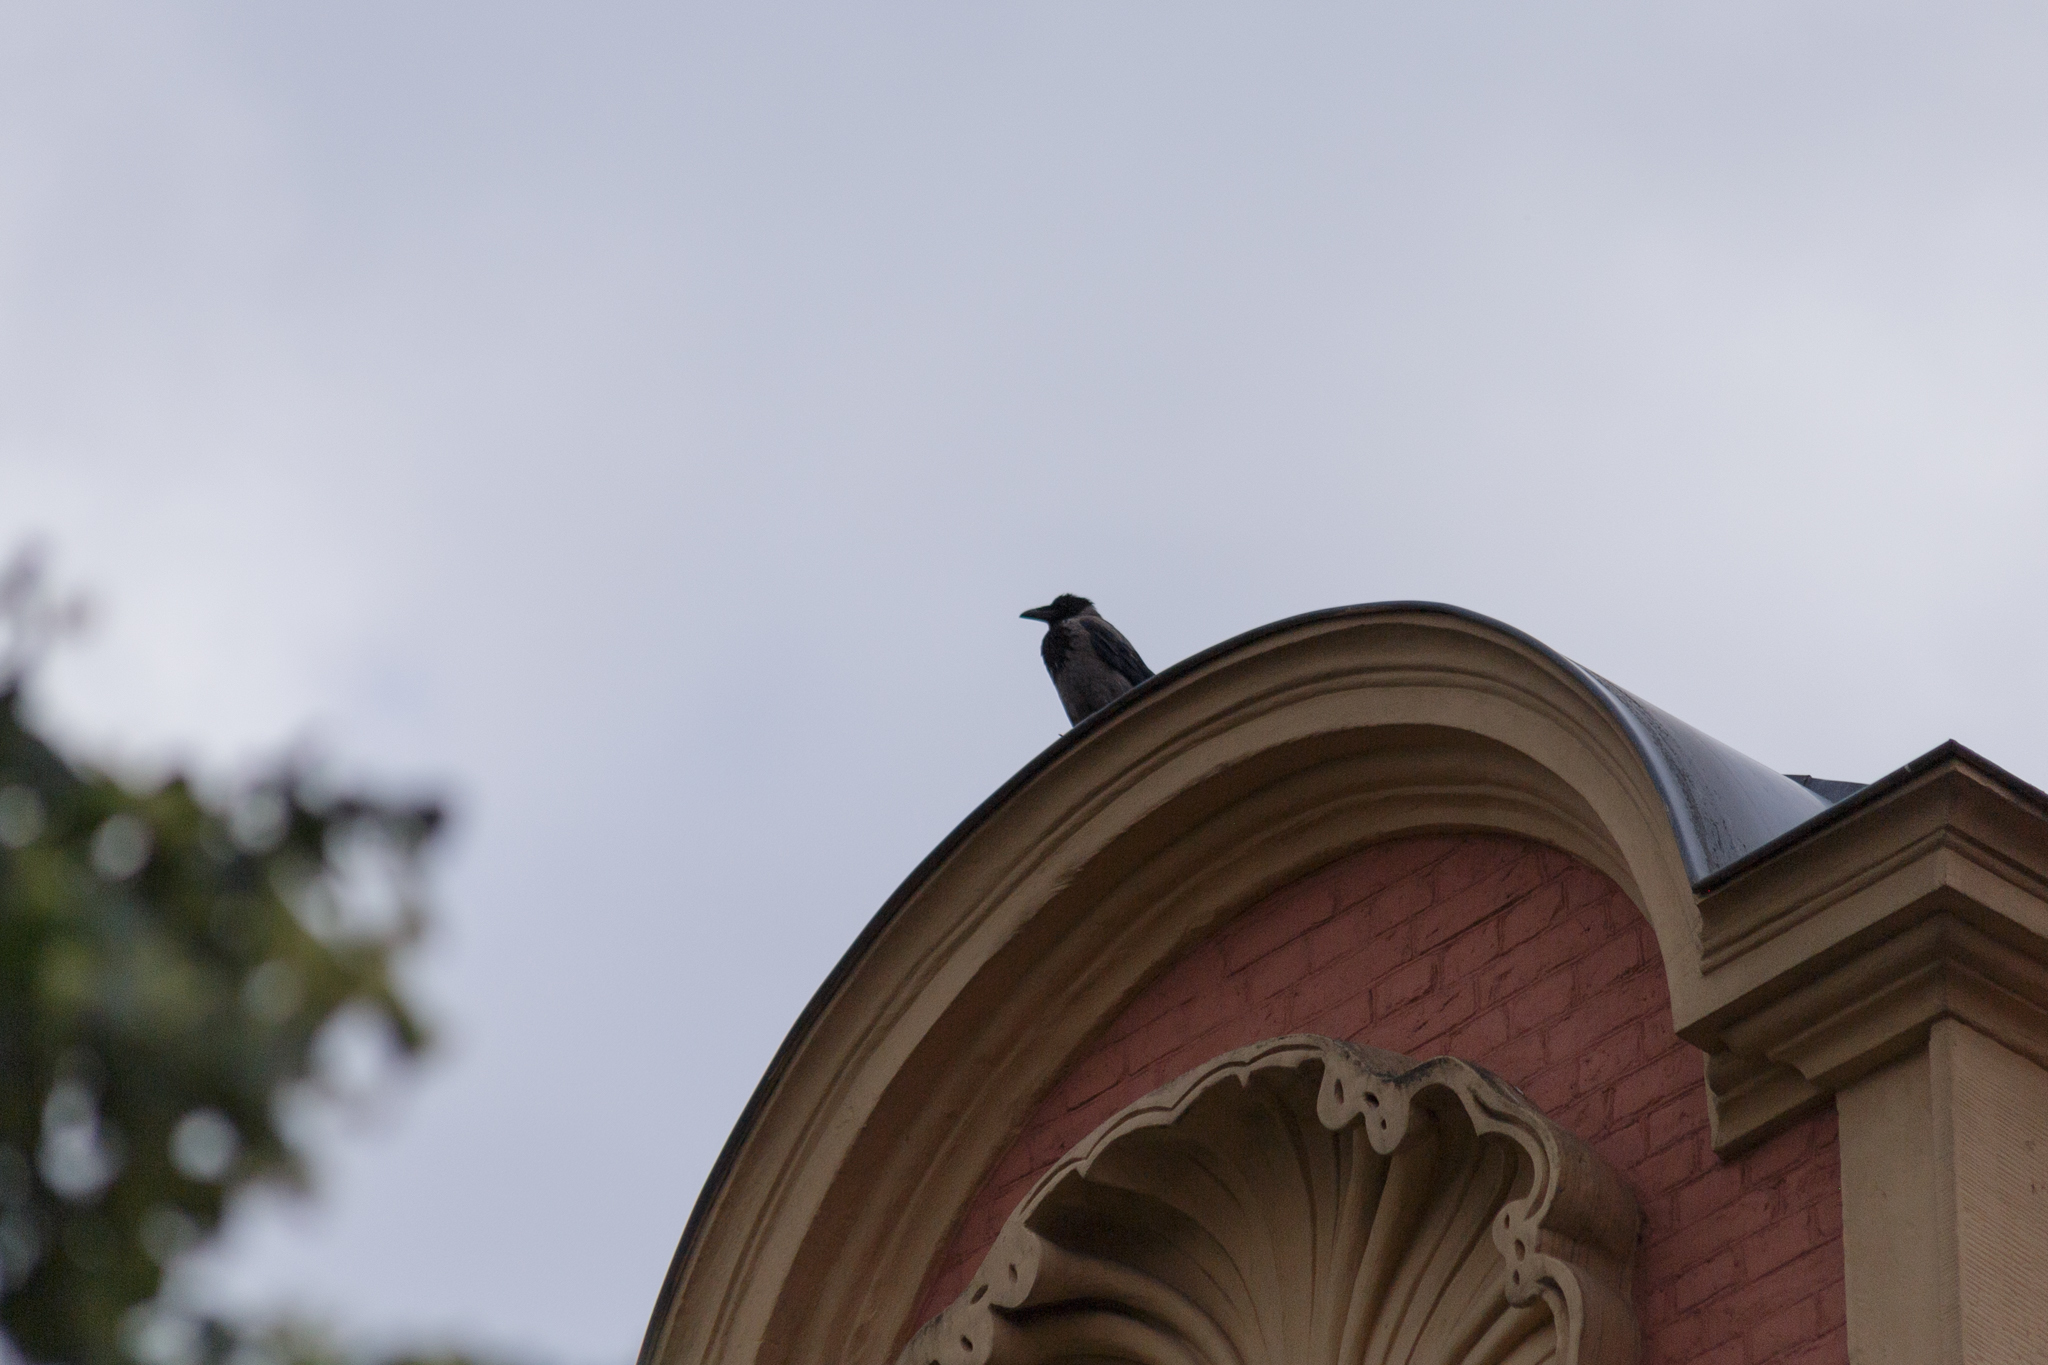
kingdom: Animalia
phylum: Chordata
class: Aves
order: Passeriformes
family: Corvidae
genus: Corvus
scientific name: Corvus cornix
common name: Hooded crow
